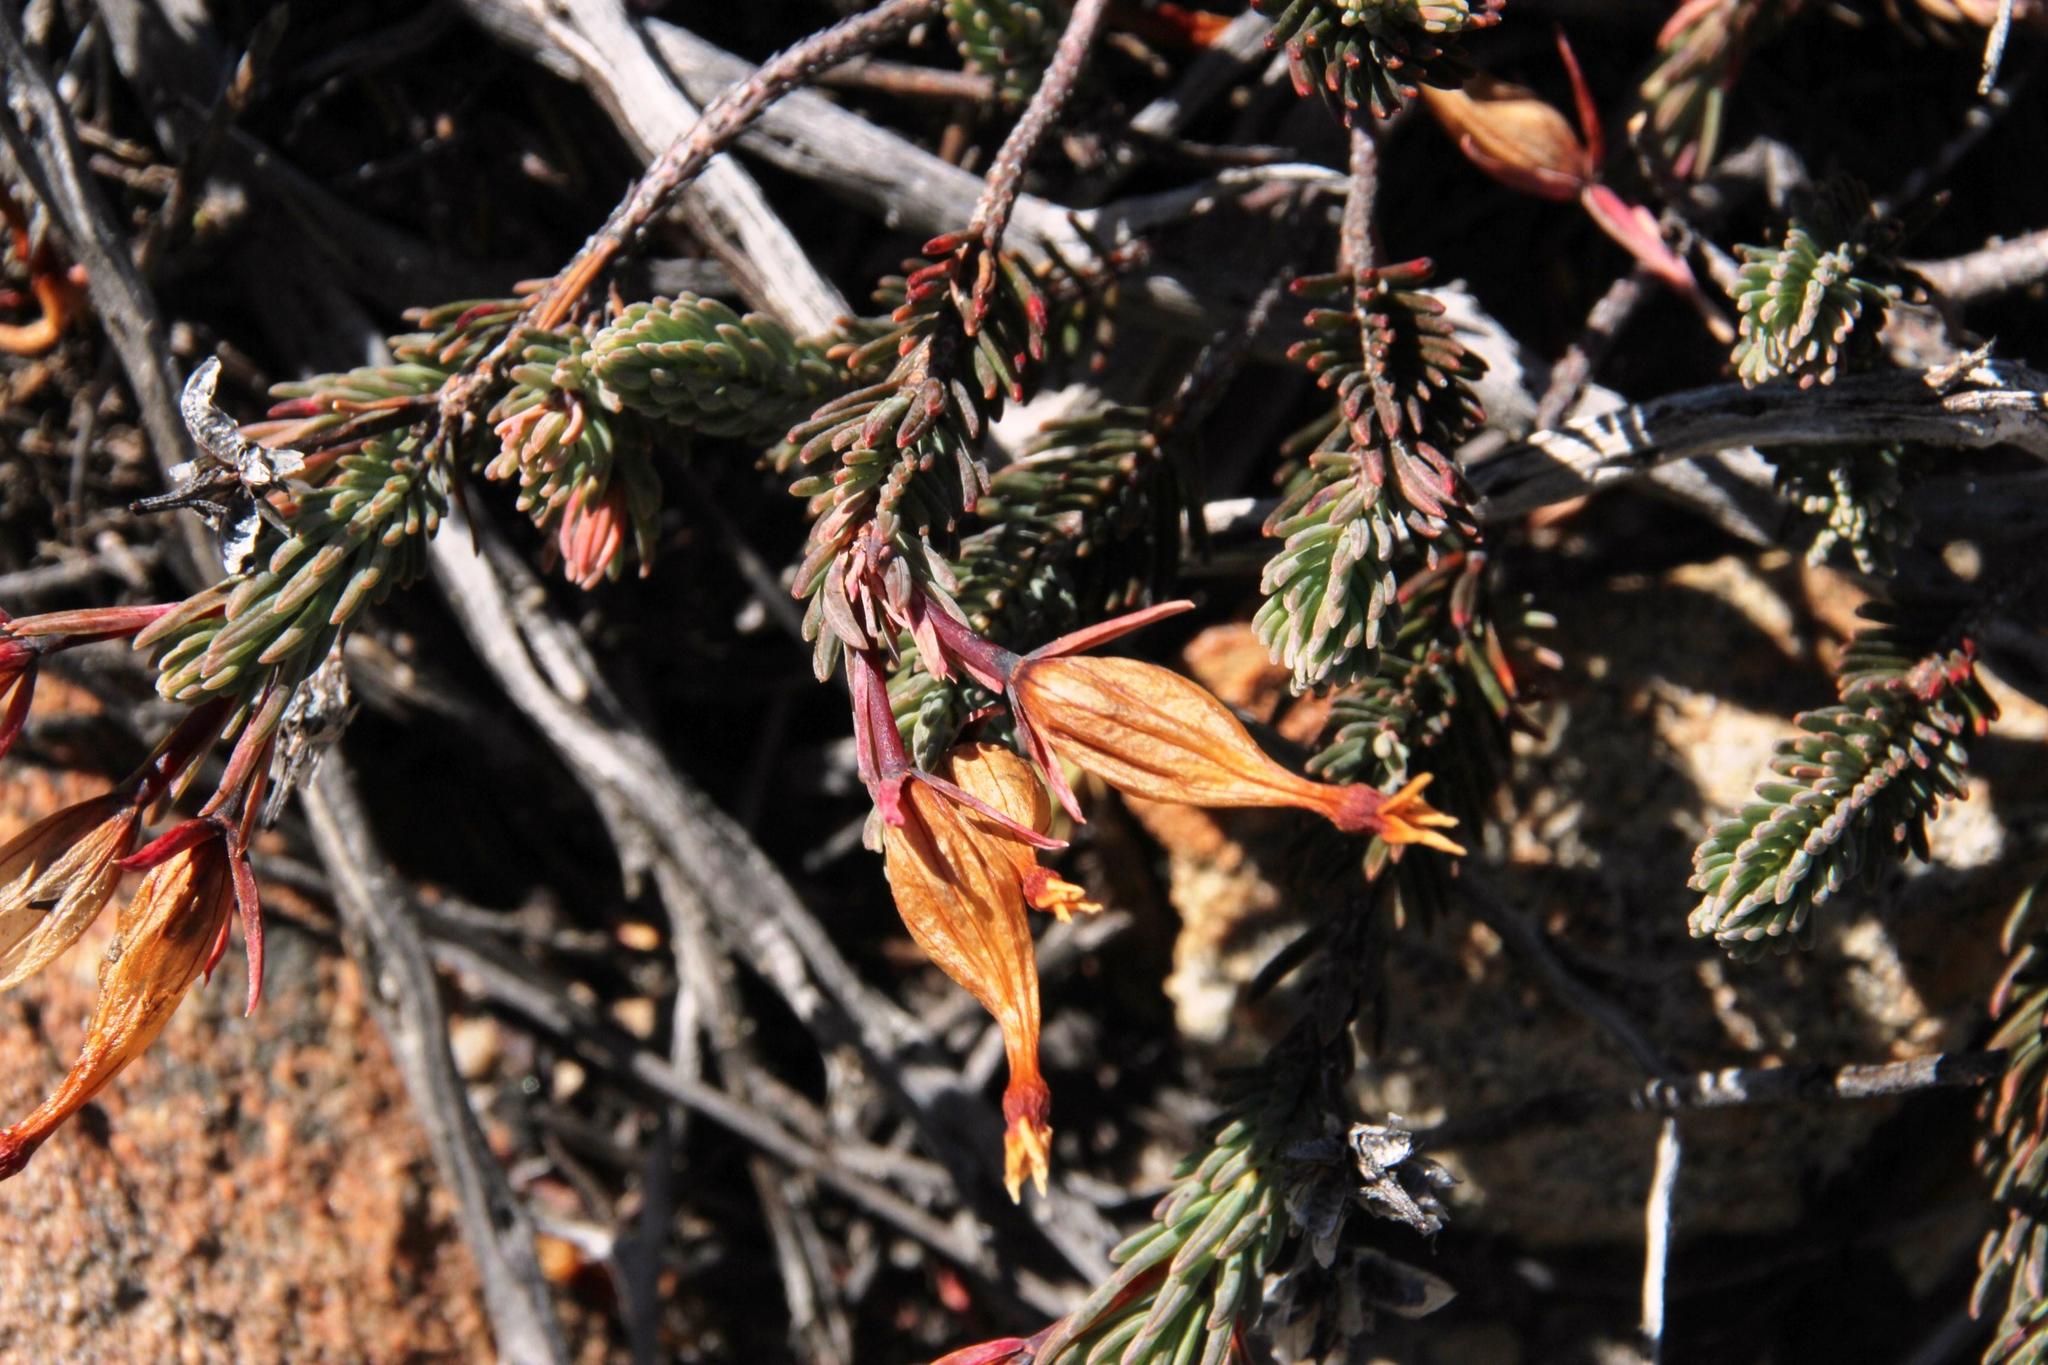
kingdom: Plantae
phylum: Tracheophyta
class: Magnoliopsida
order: Ericales
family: Ericaceae
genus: Erica
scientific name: Erica junonia
